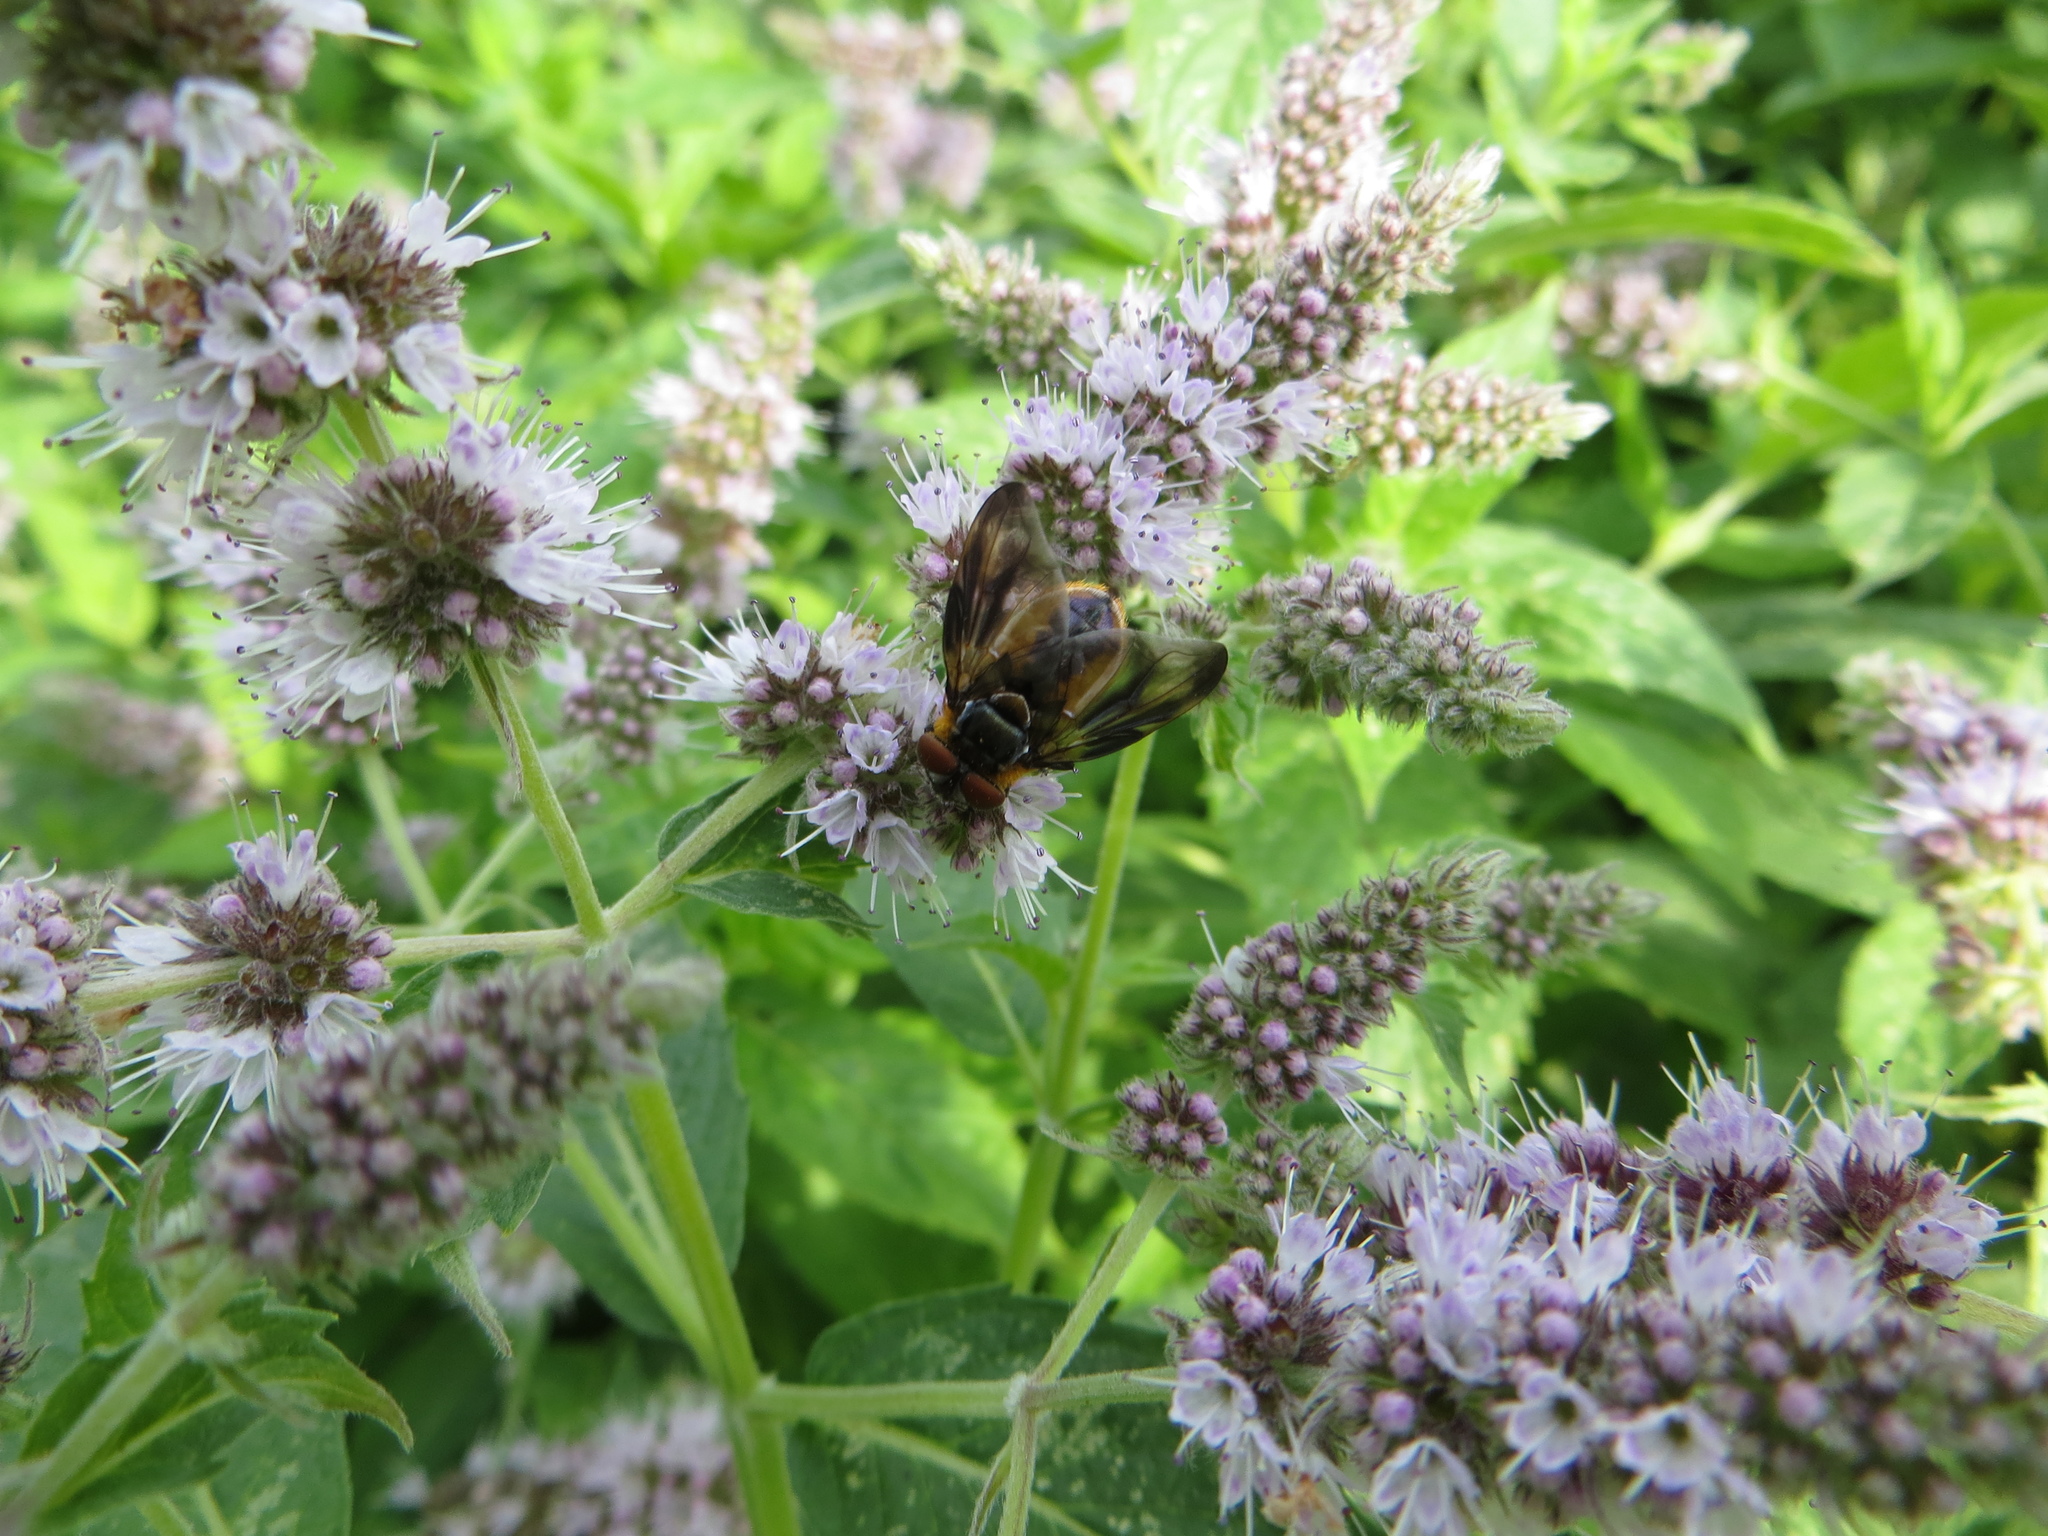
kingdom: Animalia
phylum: Arthropoda
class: Insecta
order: Diptera
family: Tachinidae
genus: Phasia
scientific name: Phasia hemiptera
